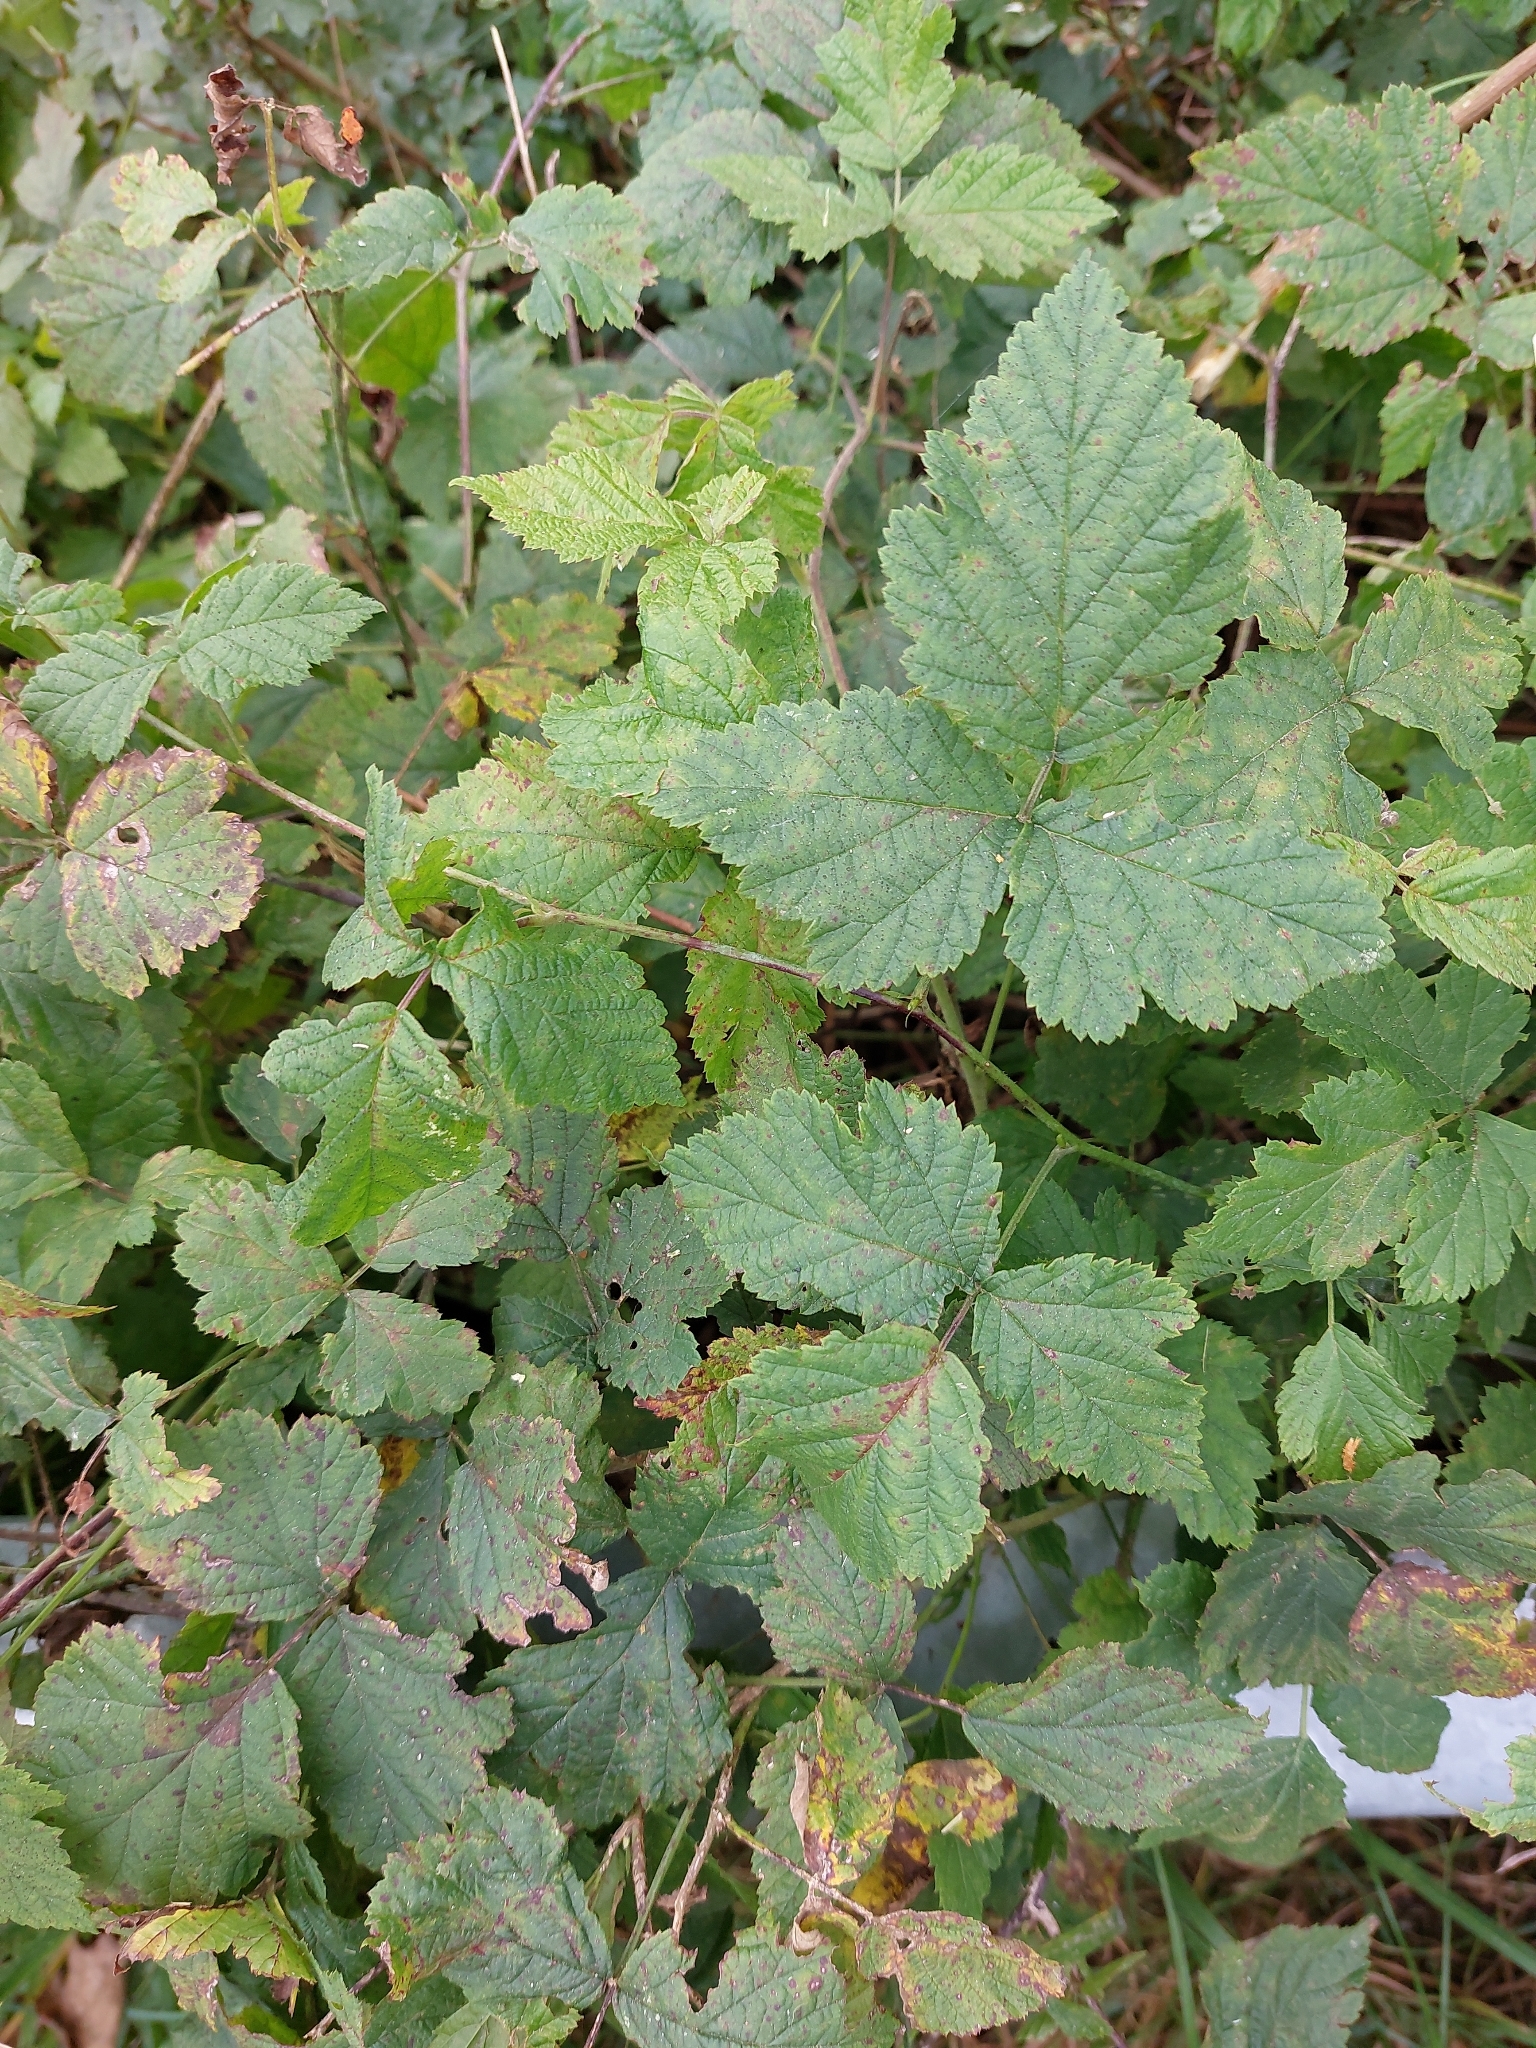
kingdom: Plantae
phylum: Tracheophyta
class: Magnoliopsida
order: Rosales
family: Rosaceae
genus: Rubus
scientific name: Rubus caesius
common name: Dewberry
